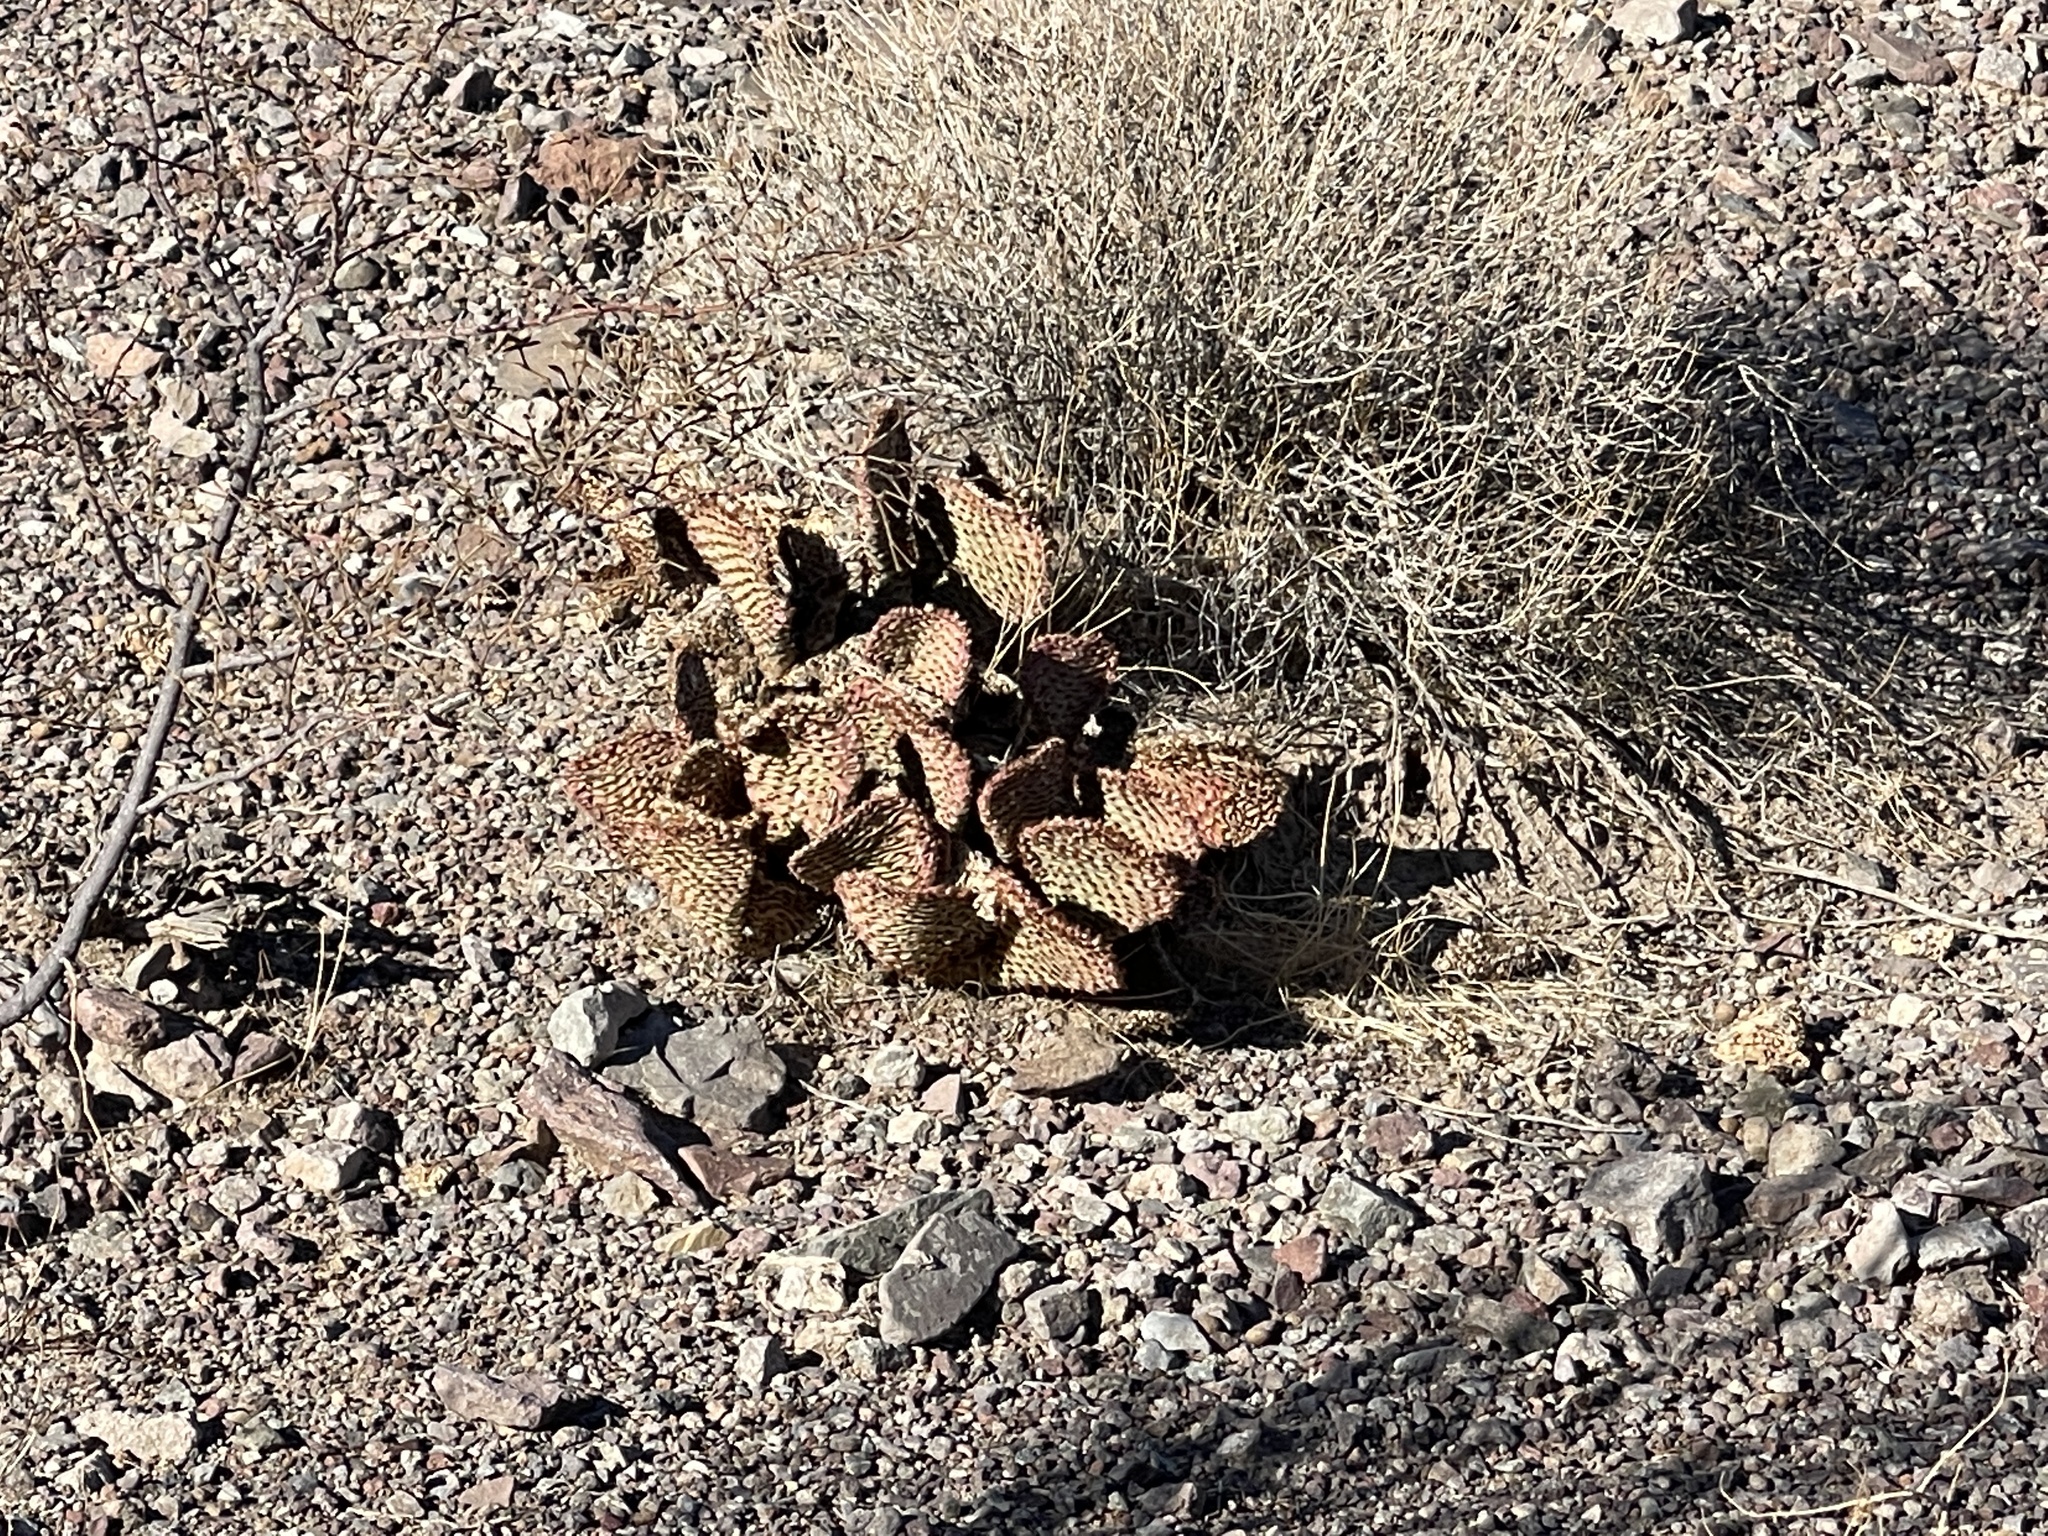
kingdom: Plantae
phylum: Tracheophyta
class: Magnoliopsida
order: Caryophyllales
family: Cactaceae
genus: Opuntia
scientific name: Opuntia basilaris
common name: Beavertail prickly-pear
